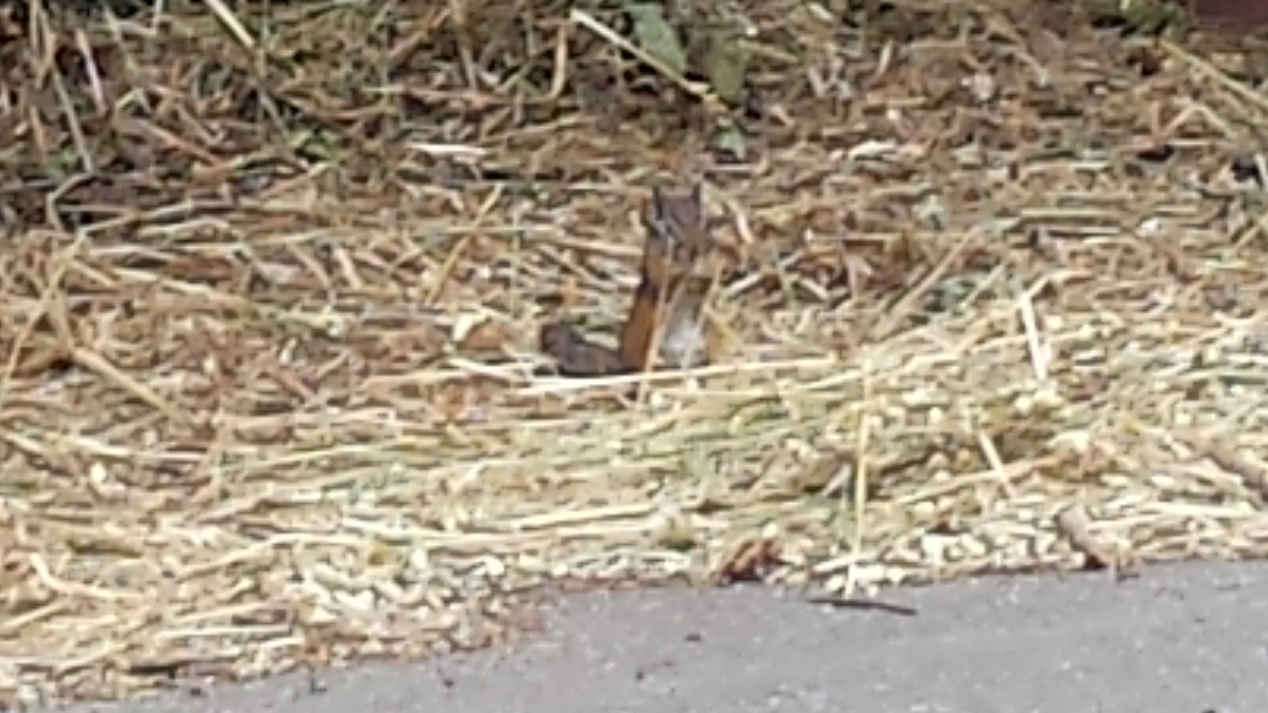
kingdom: Animalia
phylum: Chordata
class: Mammalia
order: Rodentia
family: Sciuridae
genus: Tamias
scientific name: Tamias merriami
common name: Merriam's chipmunk
